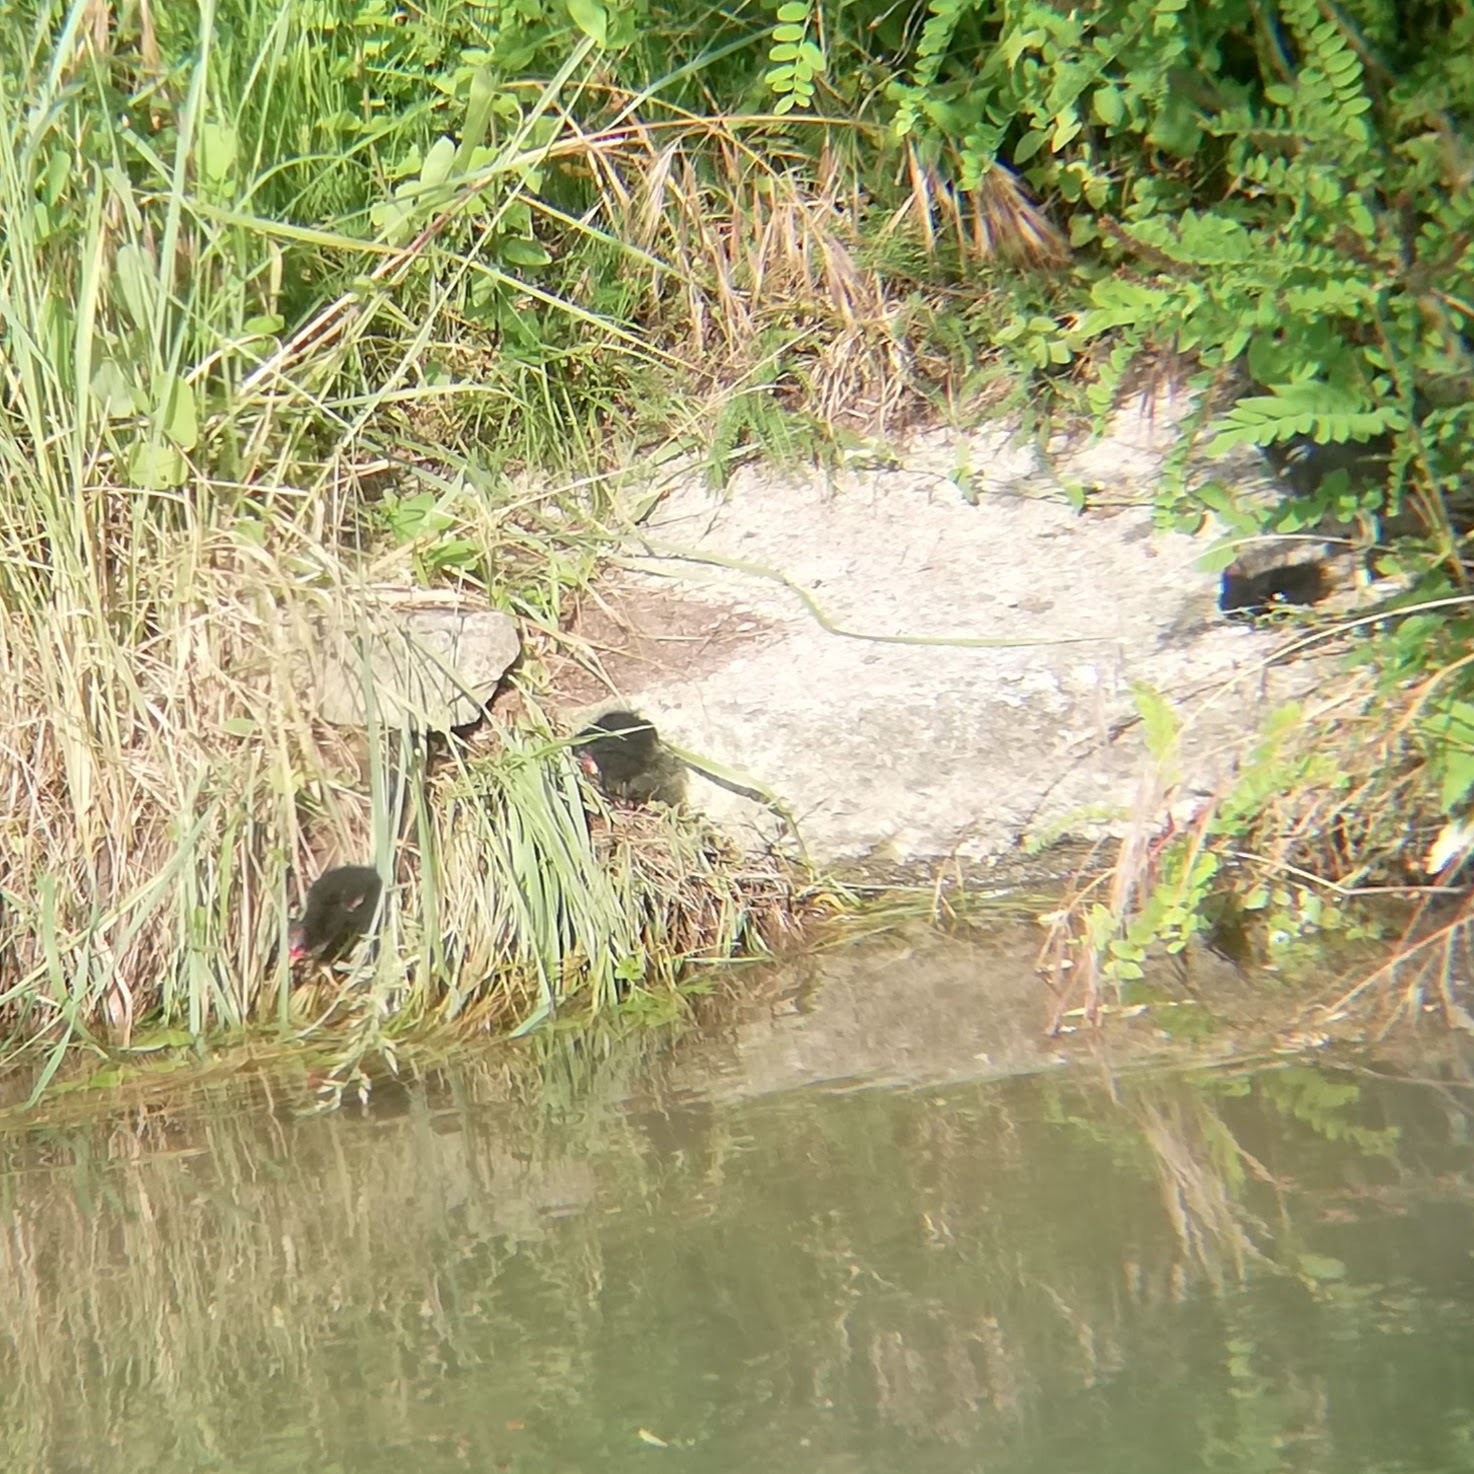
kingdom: Animalia
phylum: Chordata
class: Aves
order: Gruiformes
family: Rallidae
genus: Gallinula
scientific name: Gallinula chloropus
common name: Common moorhen
